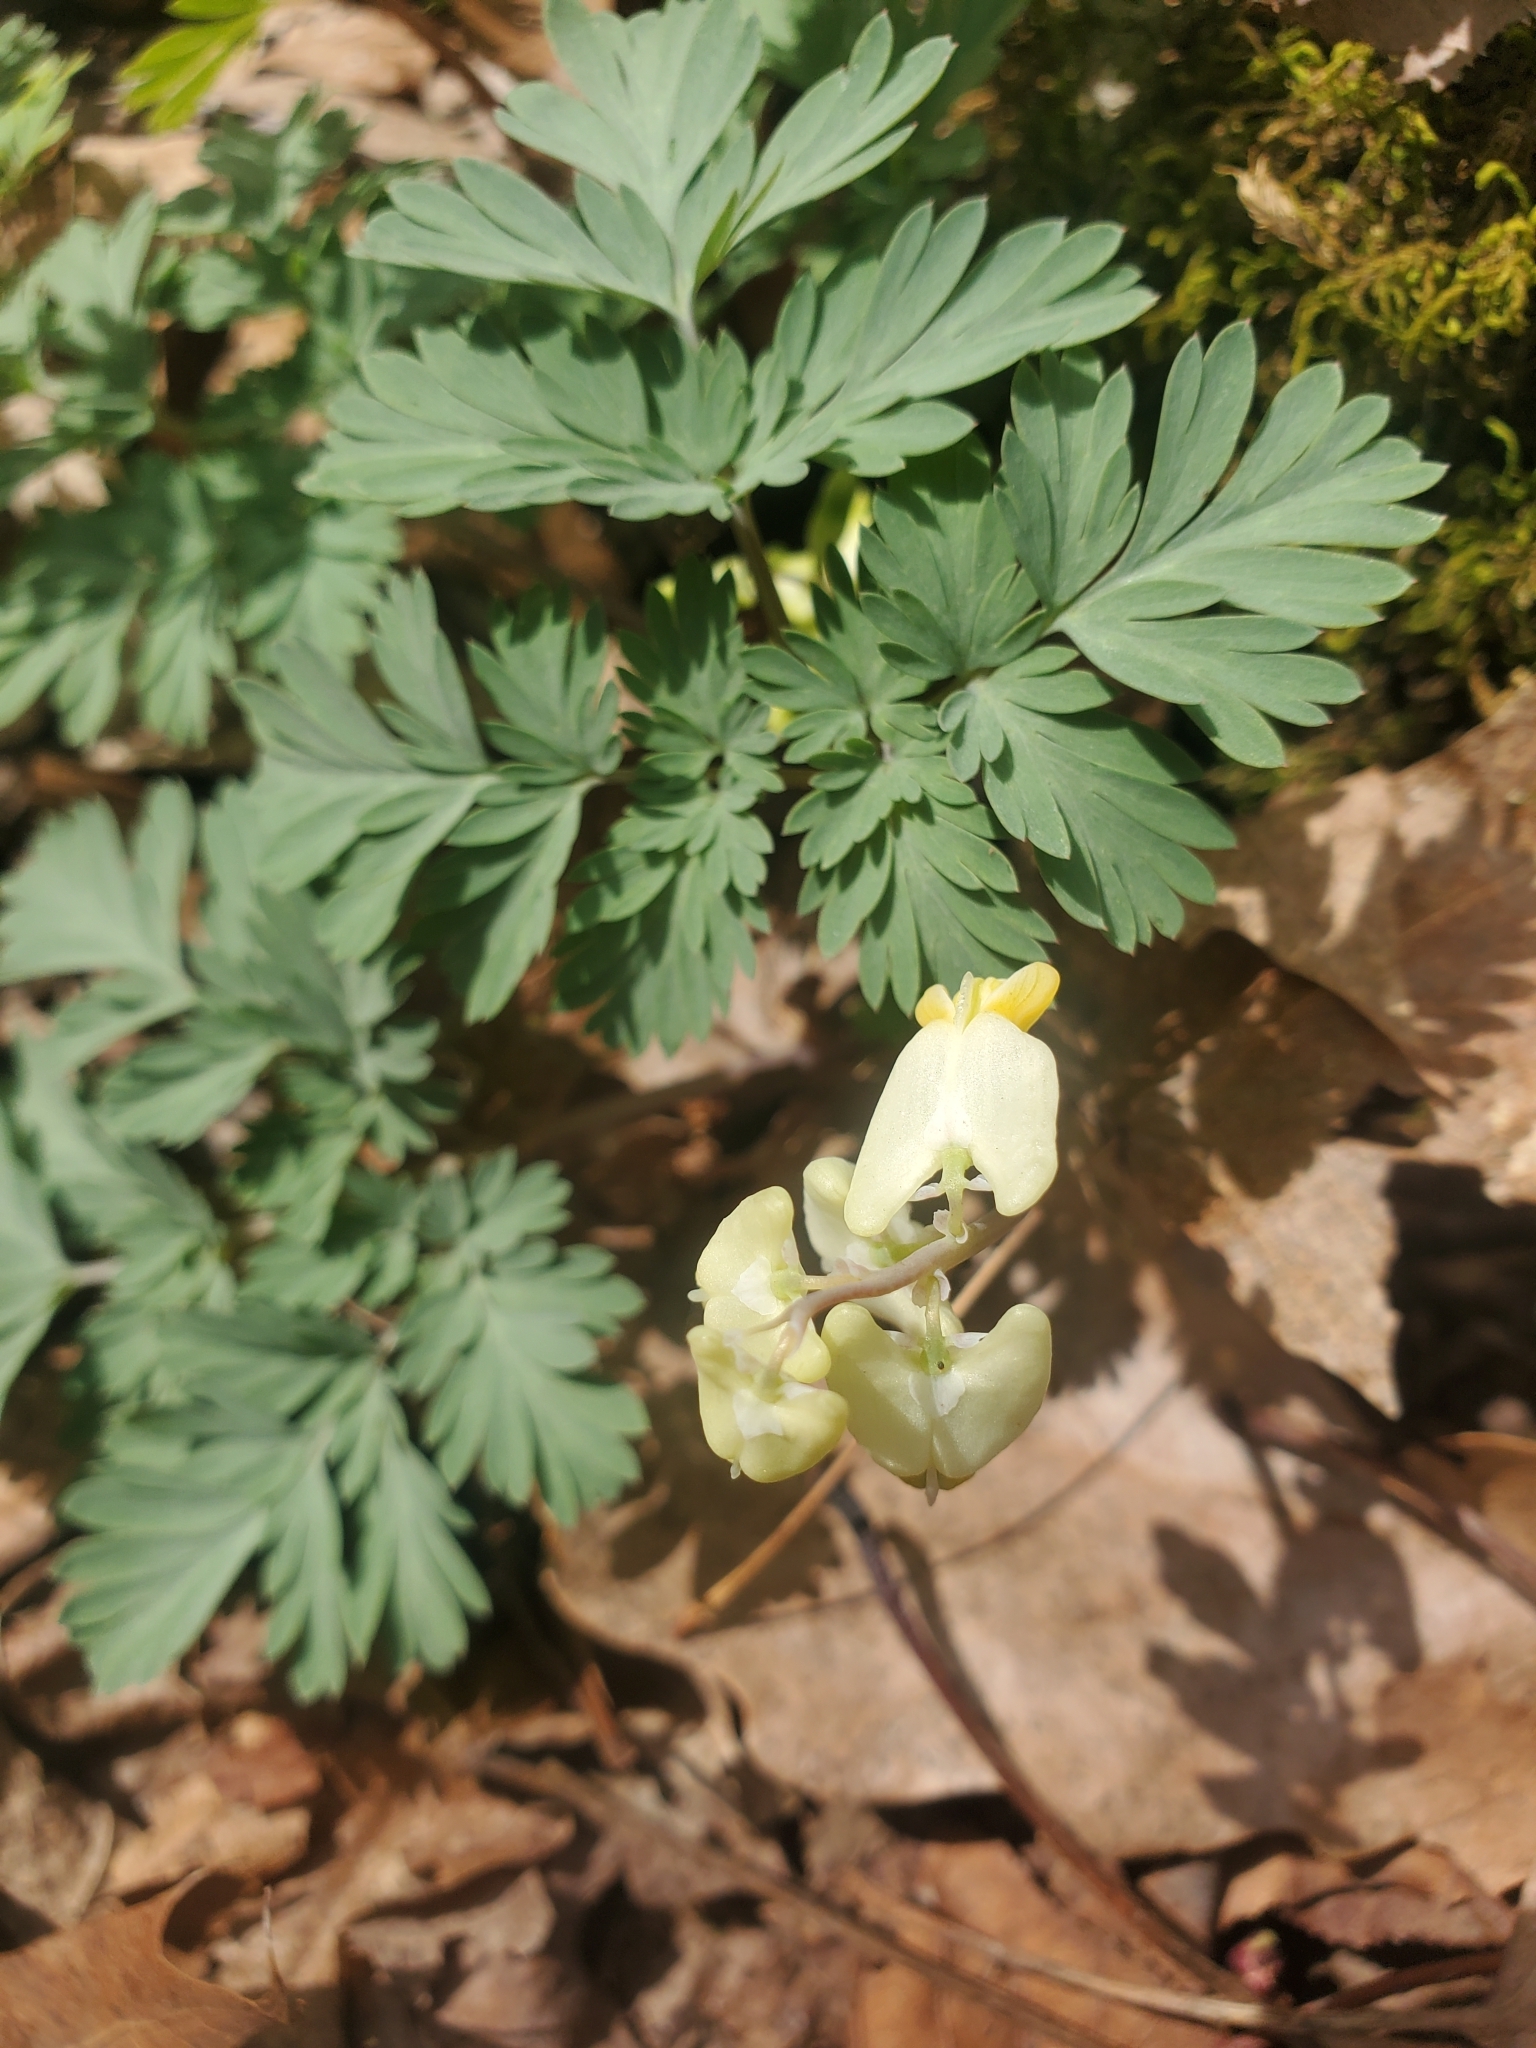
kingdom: Plantae
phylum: Tracheophyta
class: Magnoliopsida
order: Ranunculales
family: Papaveraceae
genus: Dicentra
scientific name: Dicentra cucullaria
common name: Dutchman's breeches
